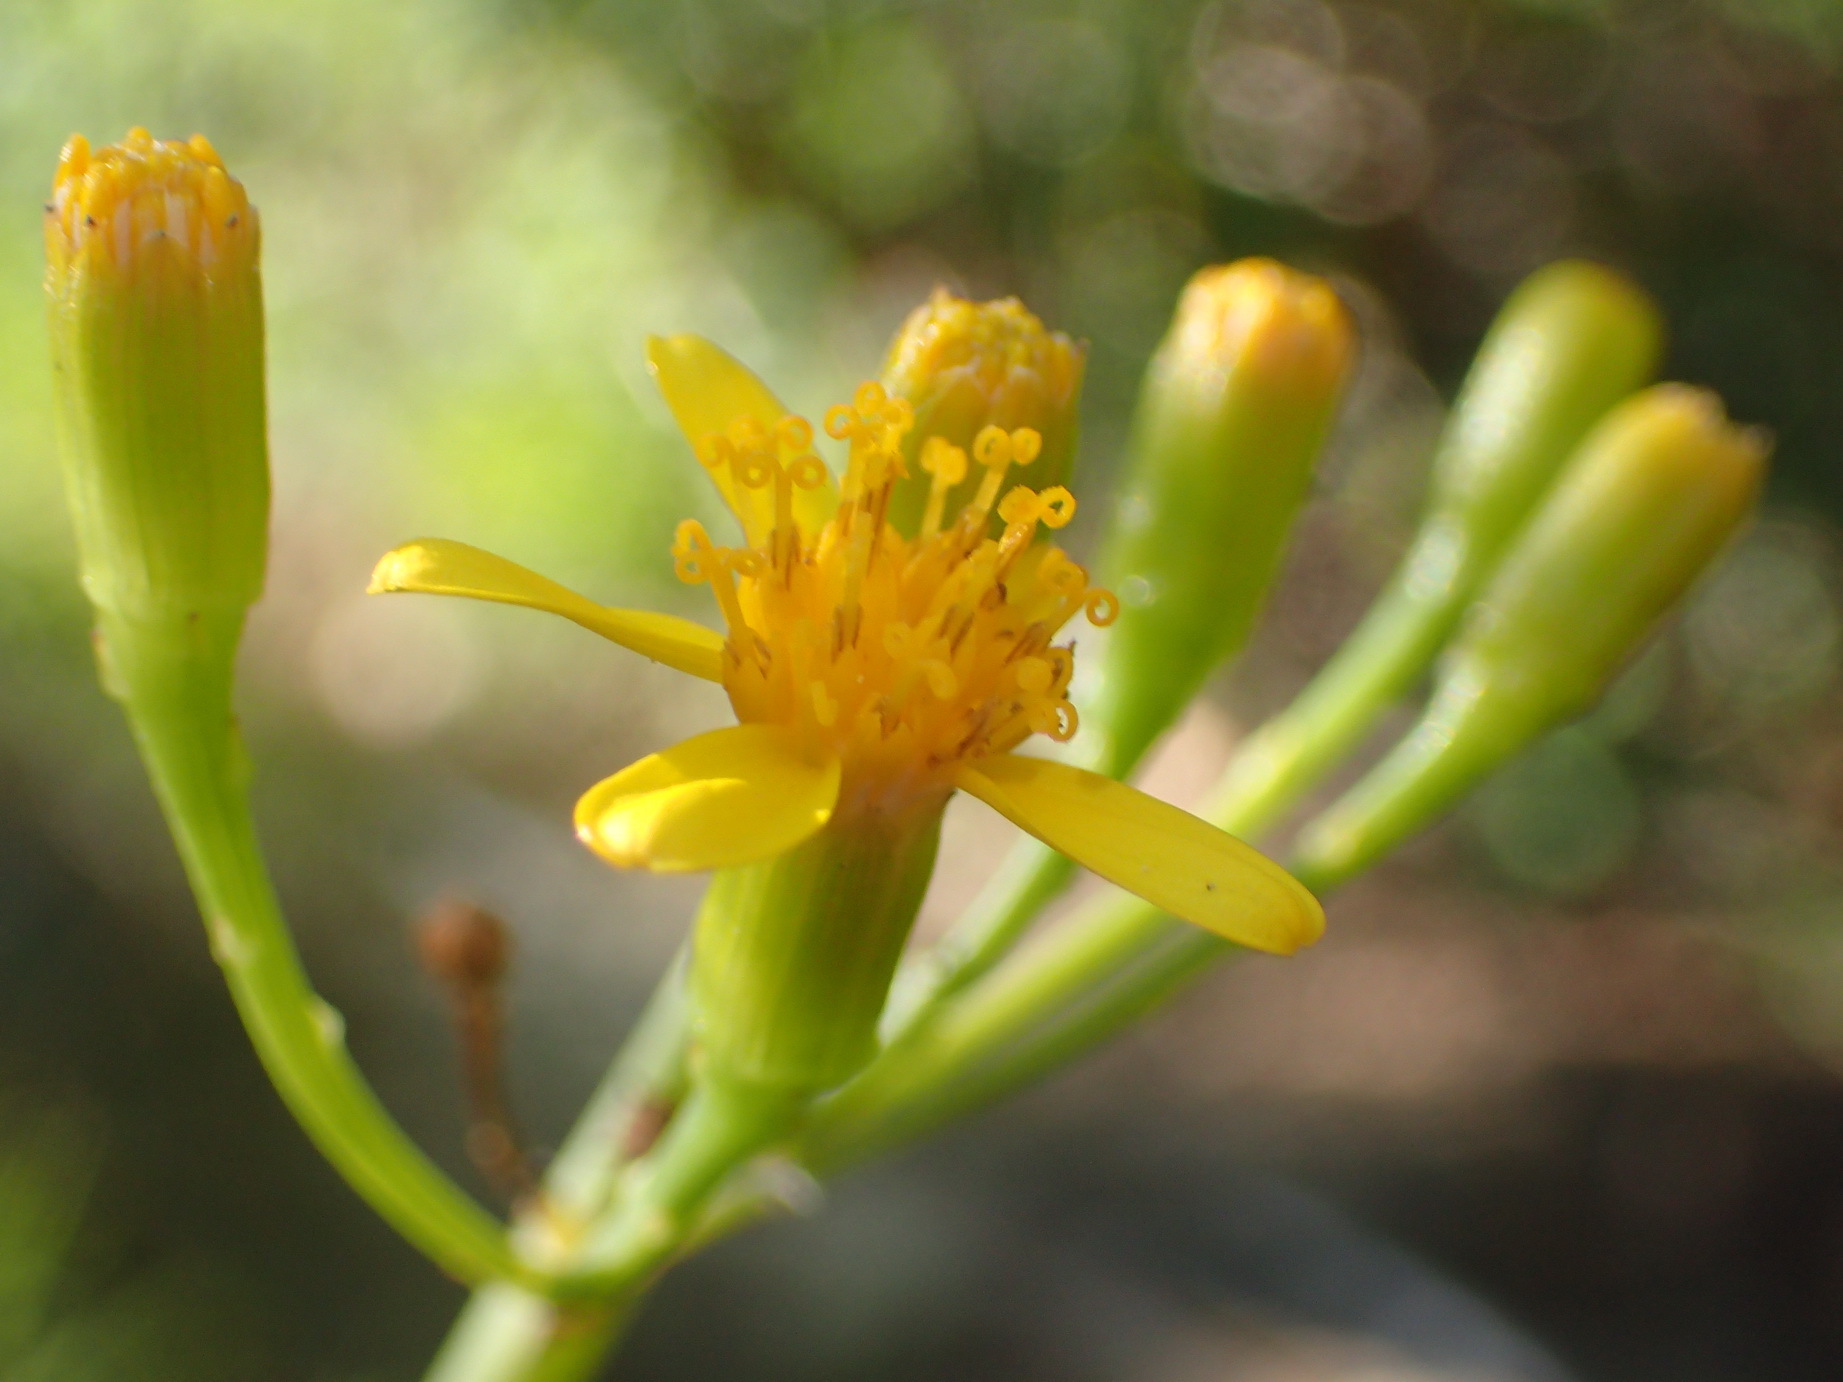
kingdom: Plantae
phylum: Tracheophyta
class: Magnoliopsida
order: Asterales
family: Asteraceae
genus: Senecio
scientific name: Senecio junceus
